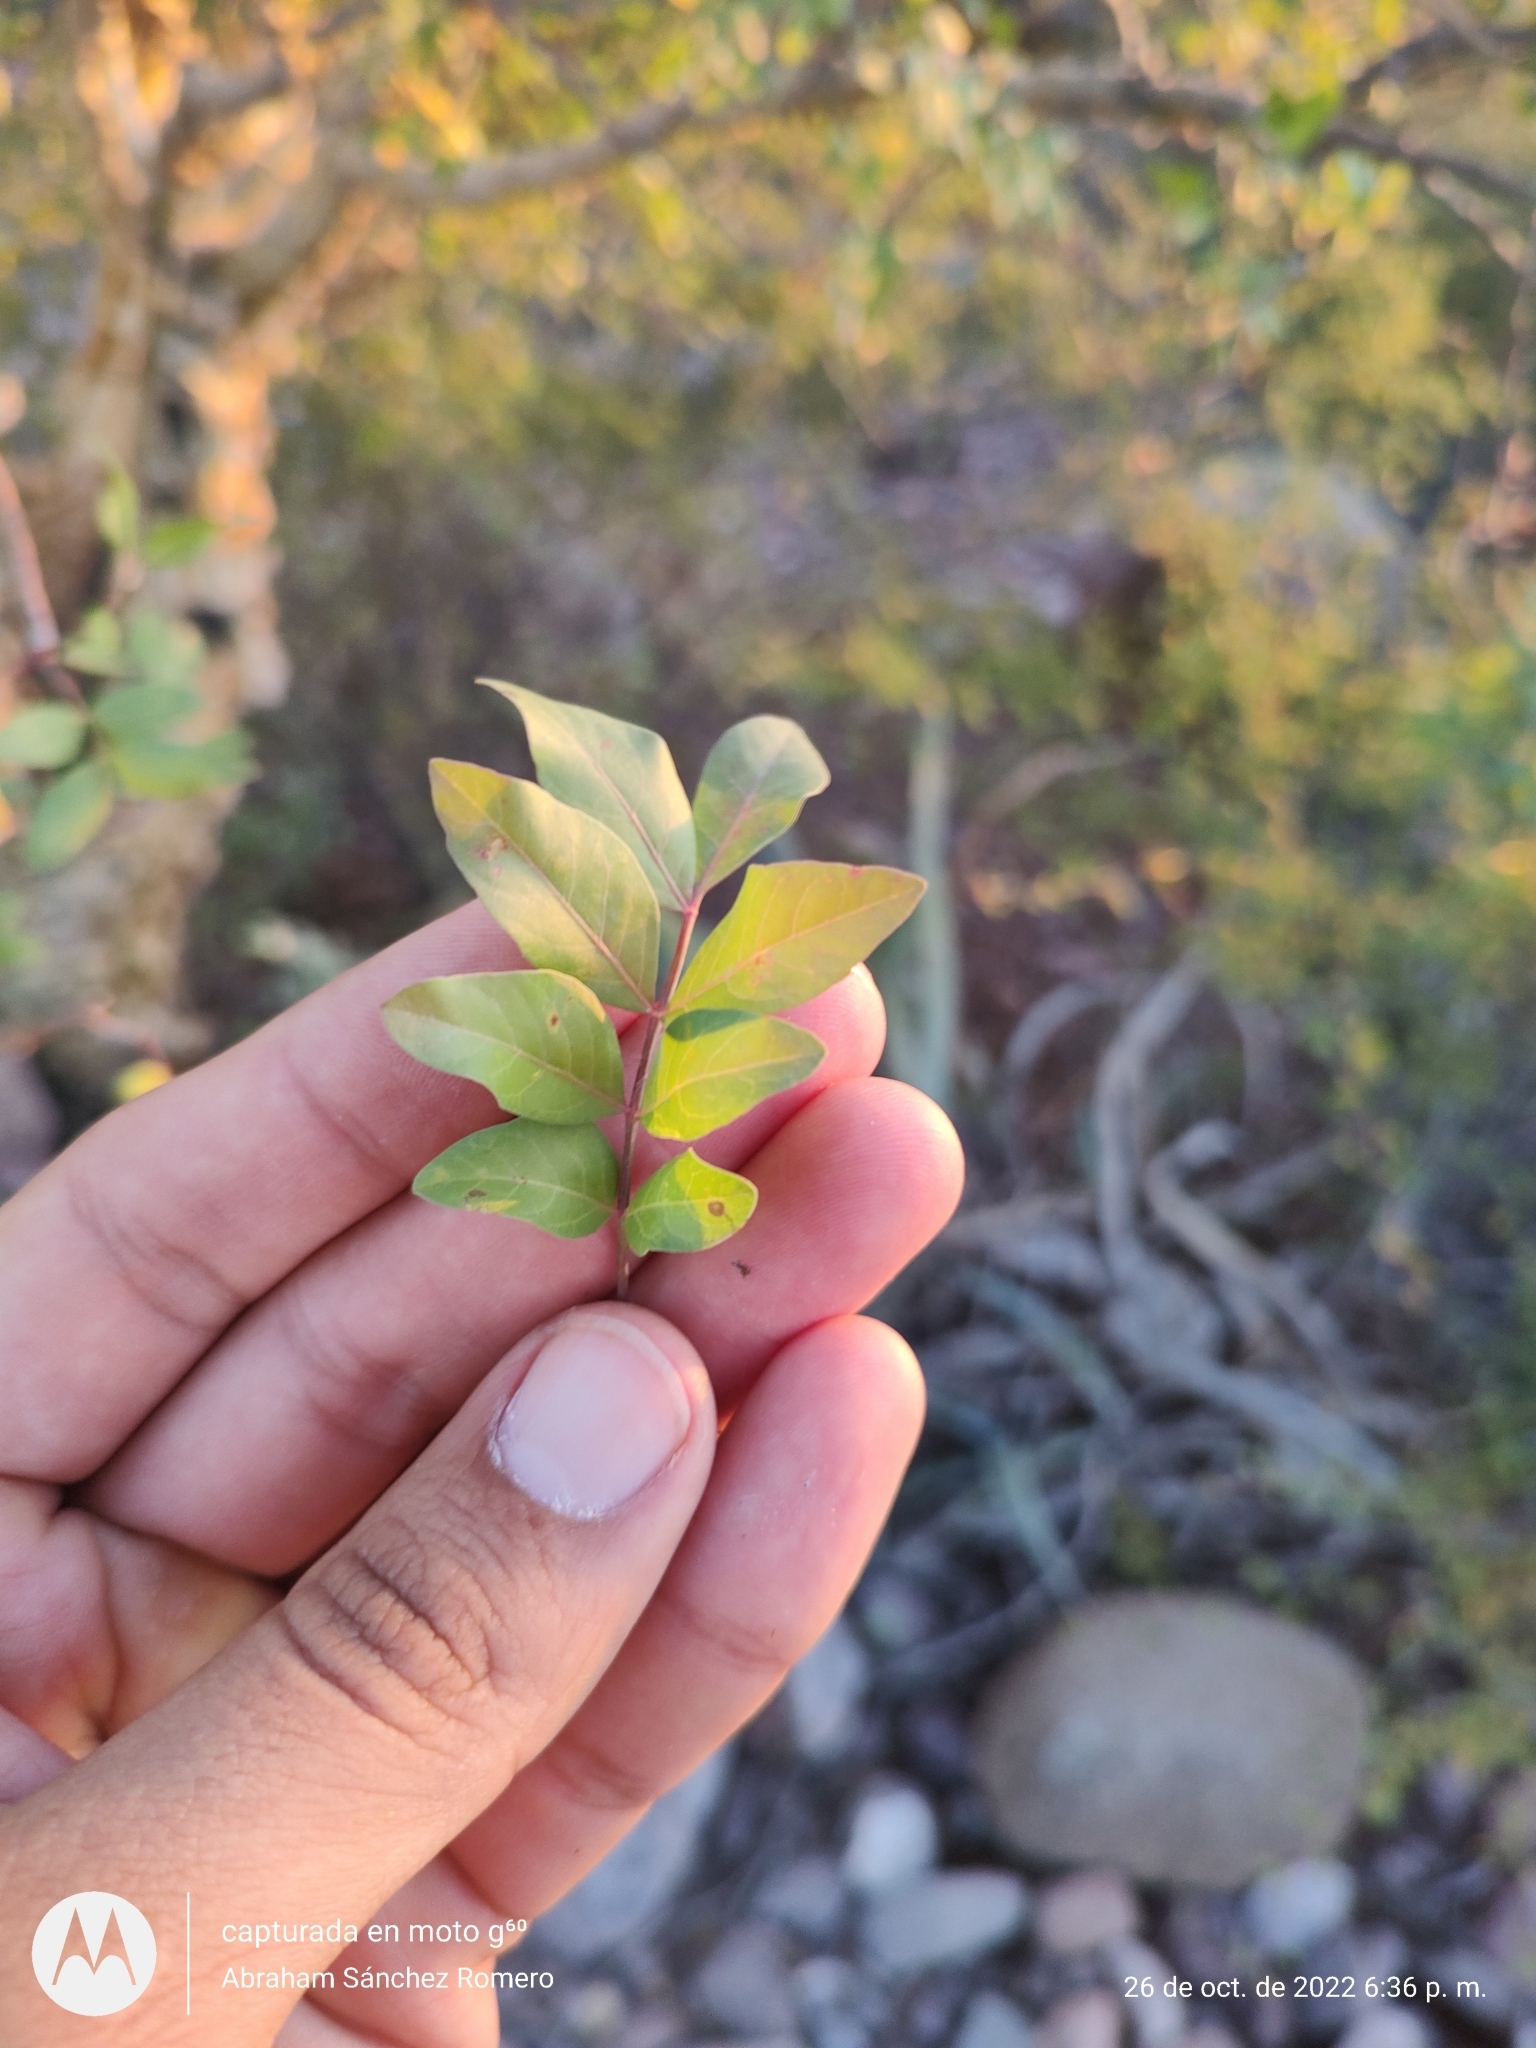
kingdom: Plantae
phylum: Tracheophyta
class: Magnoliopsida
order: Sapindales
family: Burseraceae
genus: Bursera
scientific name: Bursera fagaroides
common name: Elephant tree
